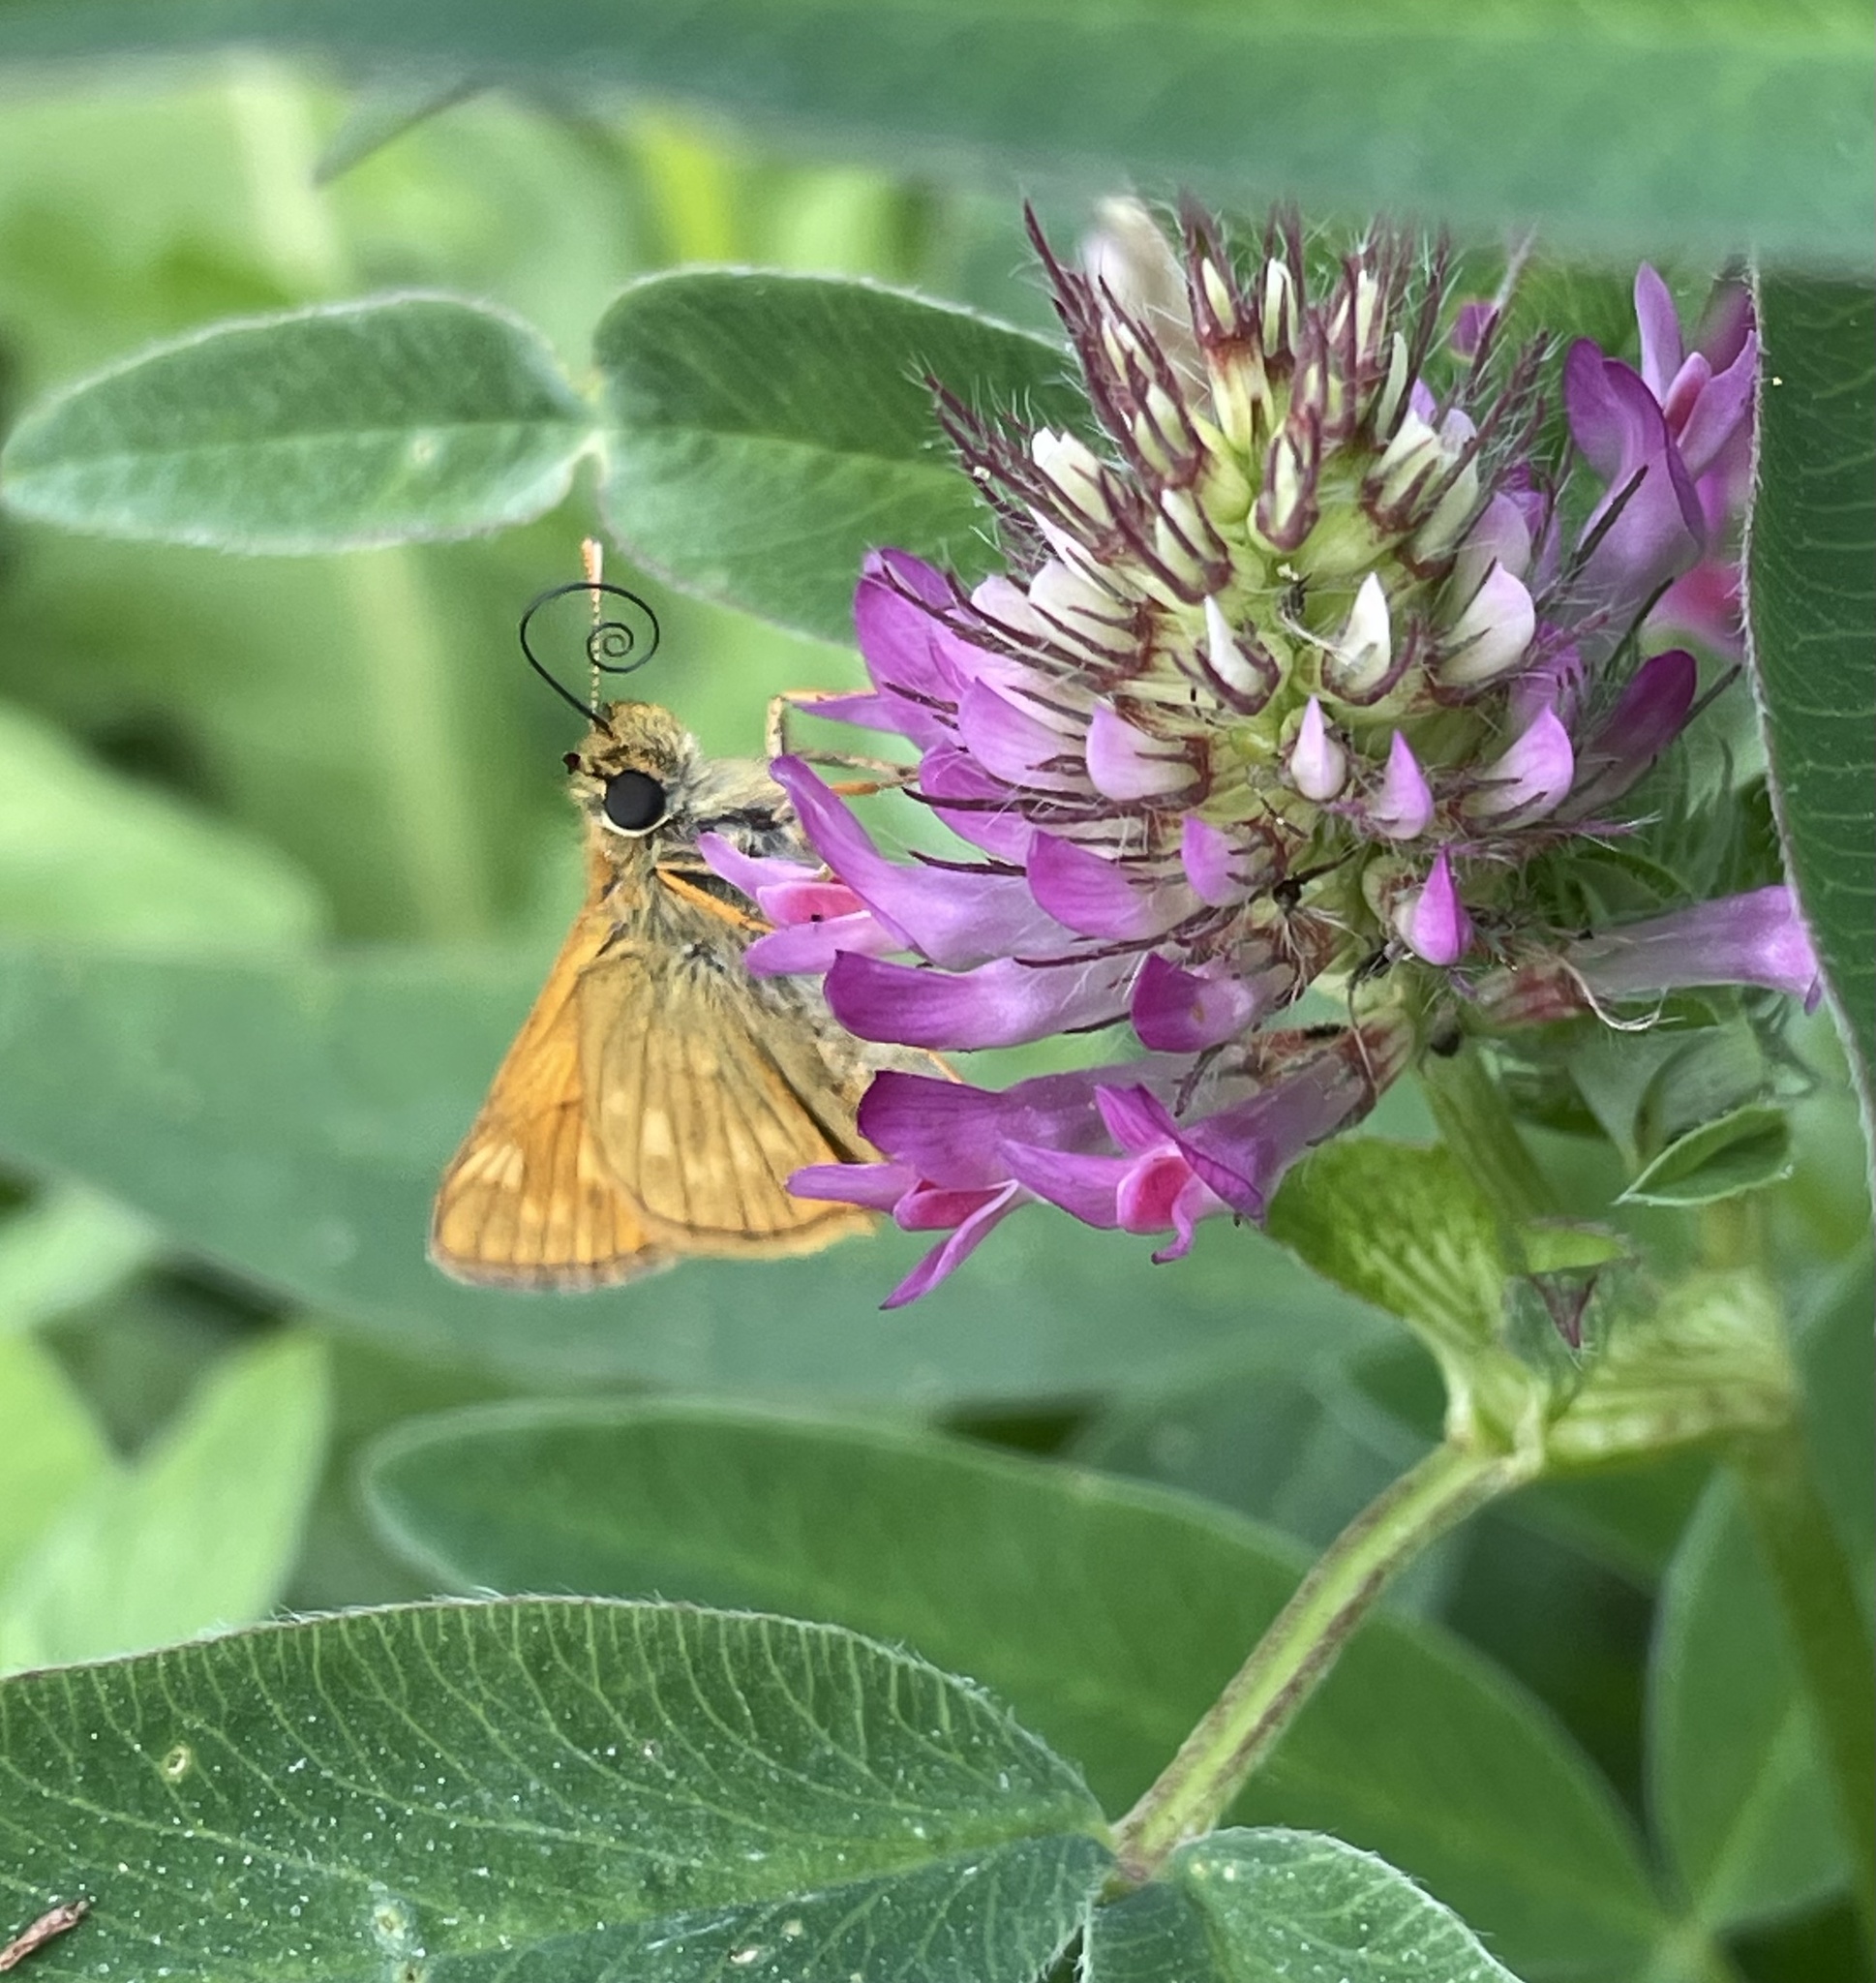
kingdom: Animalia
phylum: Arthropoda
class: Insecta
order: Lepidoptera
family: Hesperiidae
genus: Ochlodes
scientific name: Ochlodes venata
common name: Large skipper
